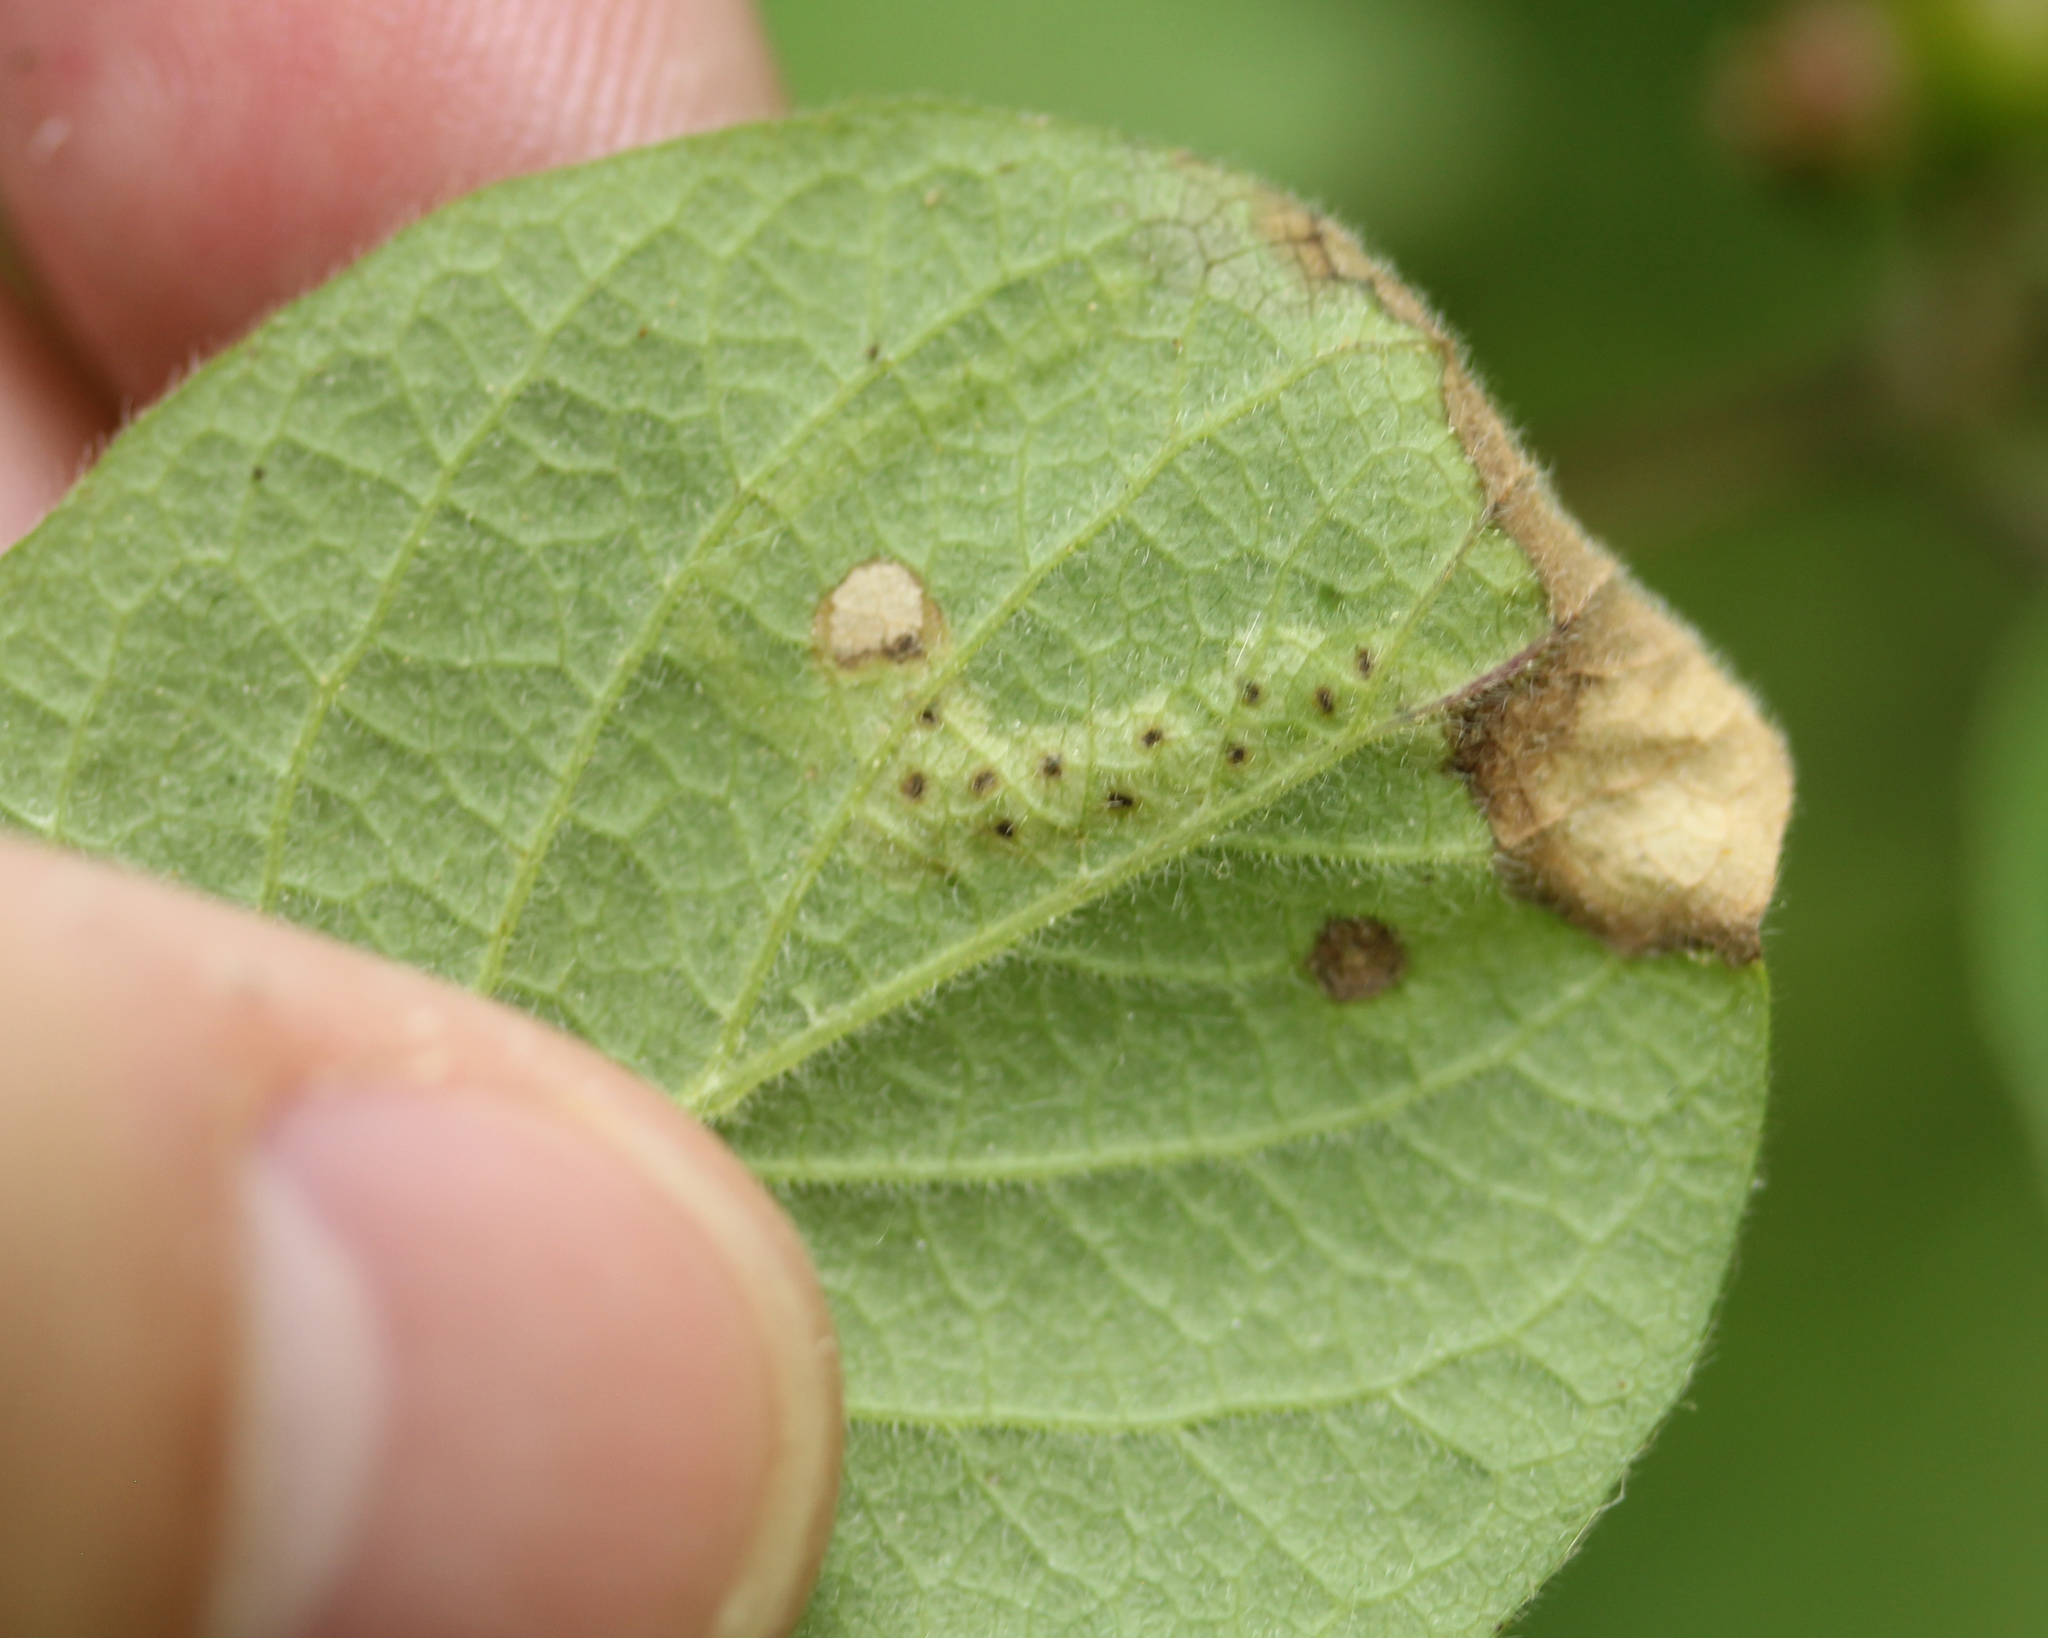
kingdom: Animalia
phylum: Arthropoda
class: Insecta
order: Diptera
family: Agromyzidae
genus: Aulagromyza
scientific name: Aulagromyza
